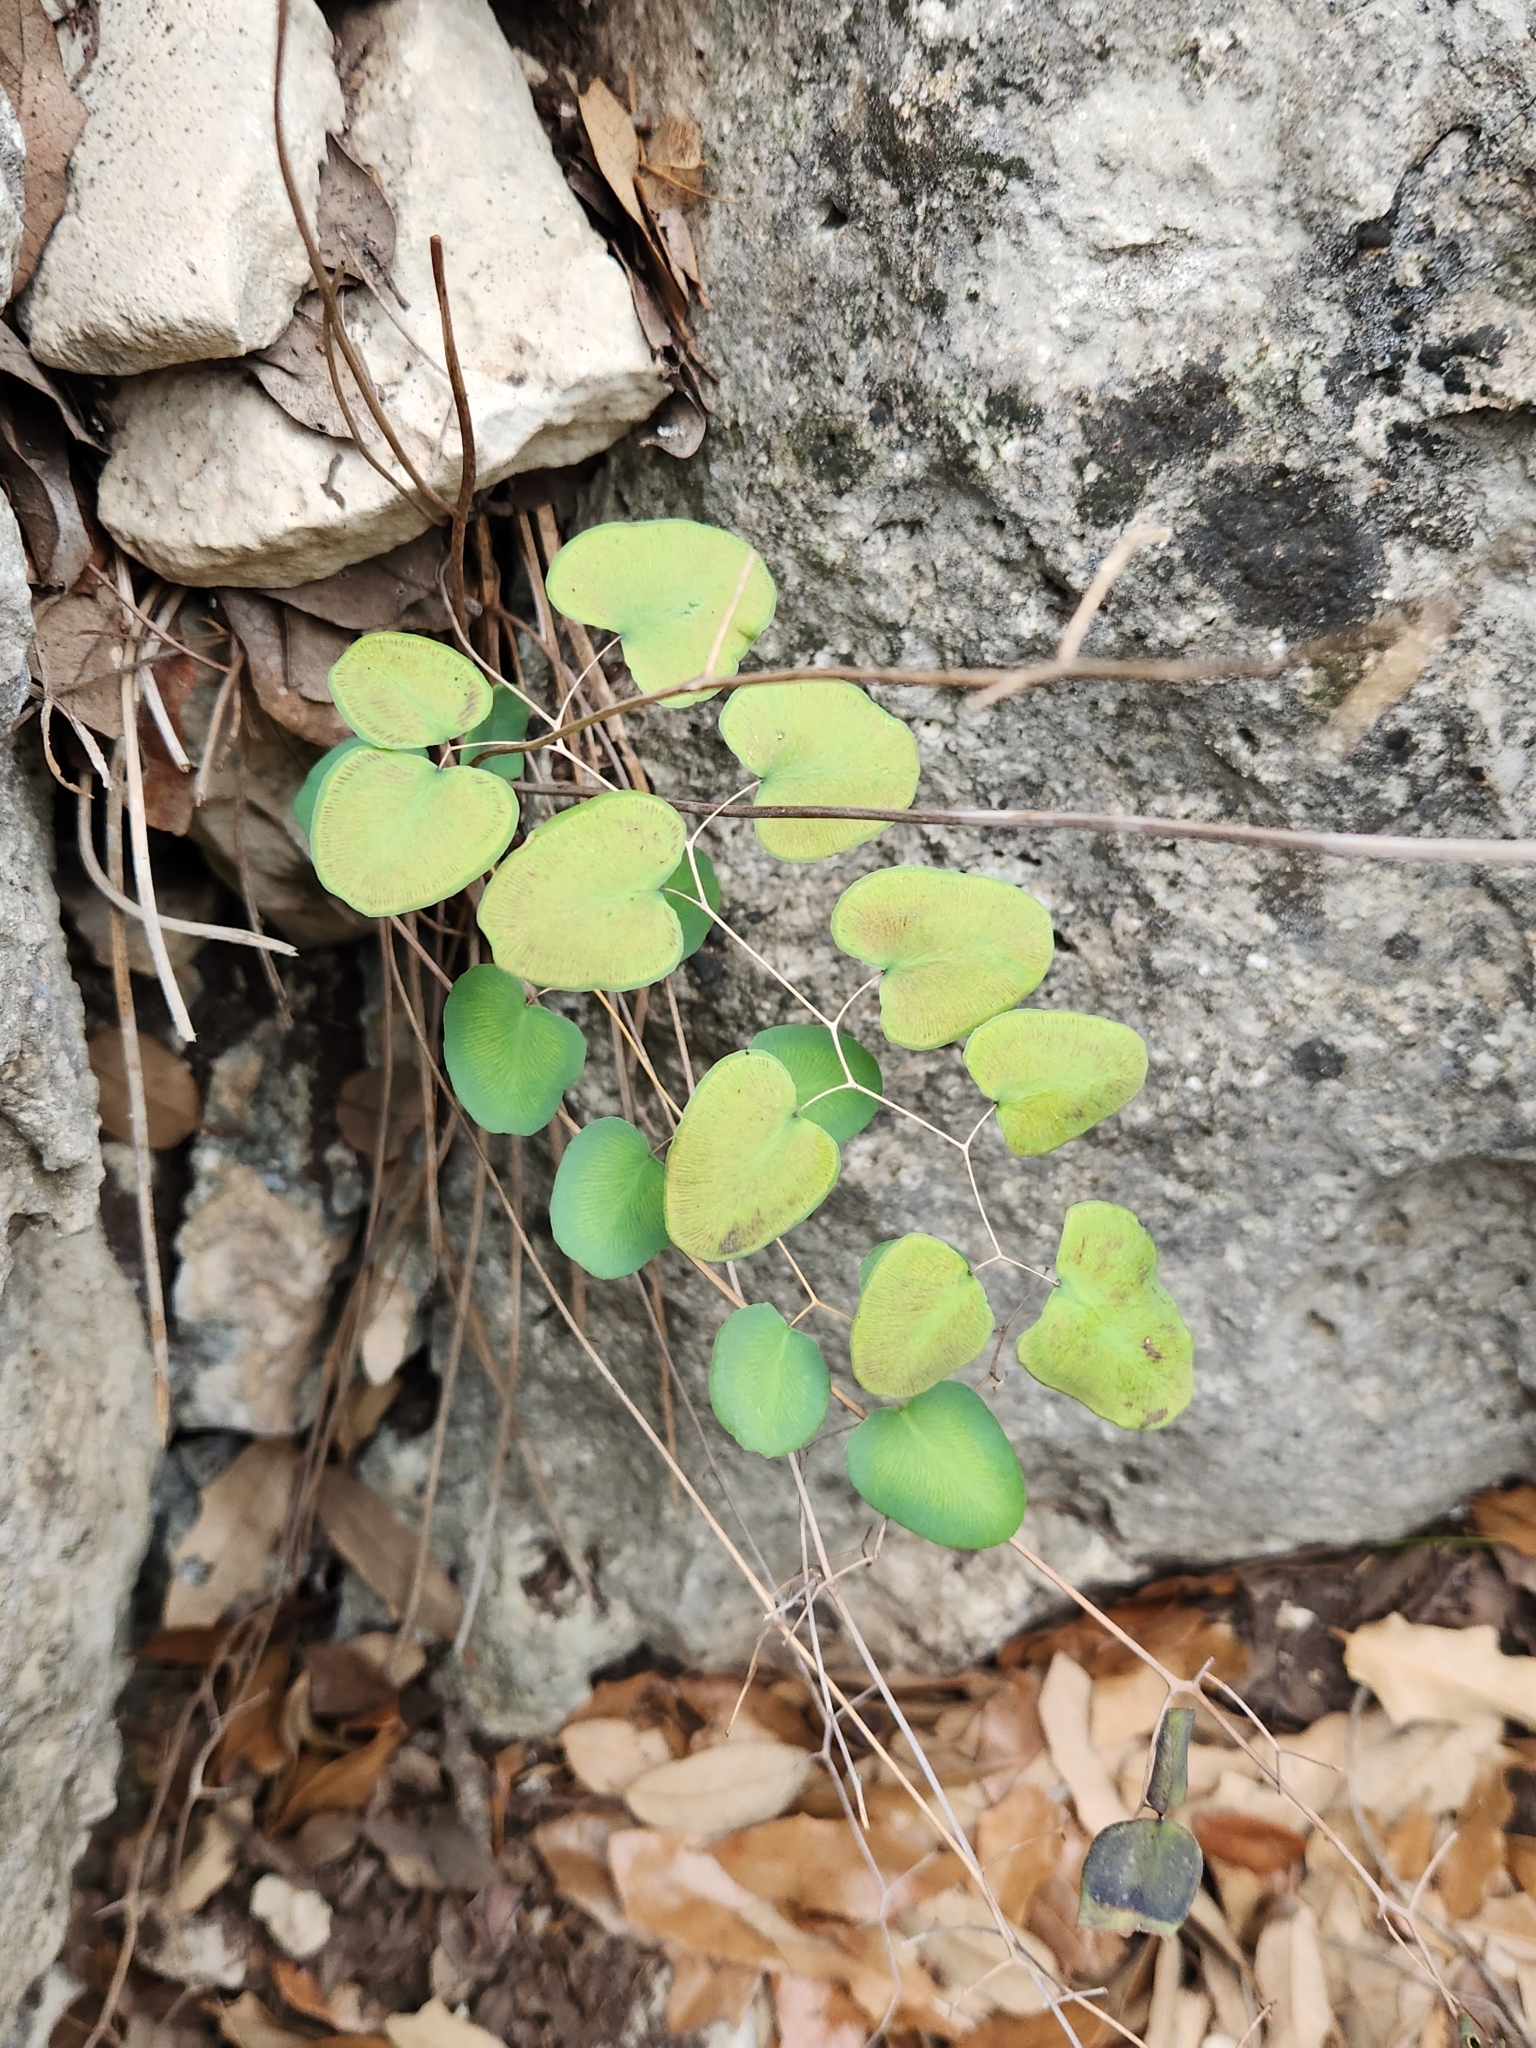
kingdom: Plantae
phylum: Tracheophyta
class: Polypodiopsida
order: Polypodiales
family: Pteridaceae
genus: Pellaea
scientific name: Pellaea ovata
